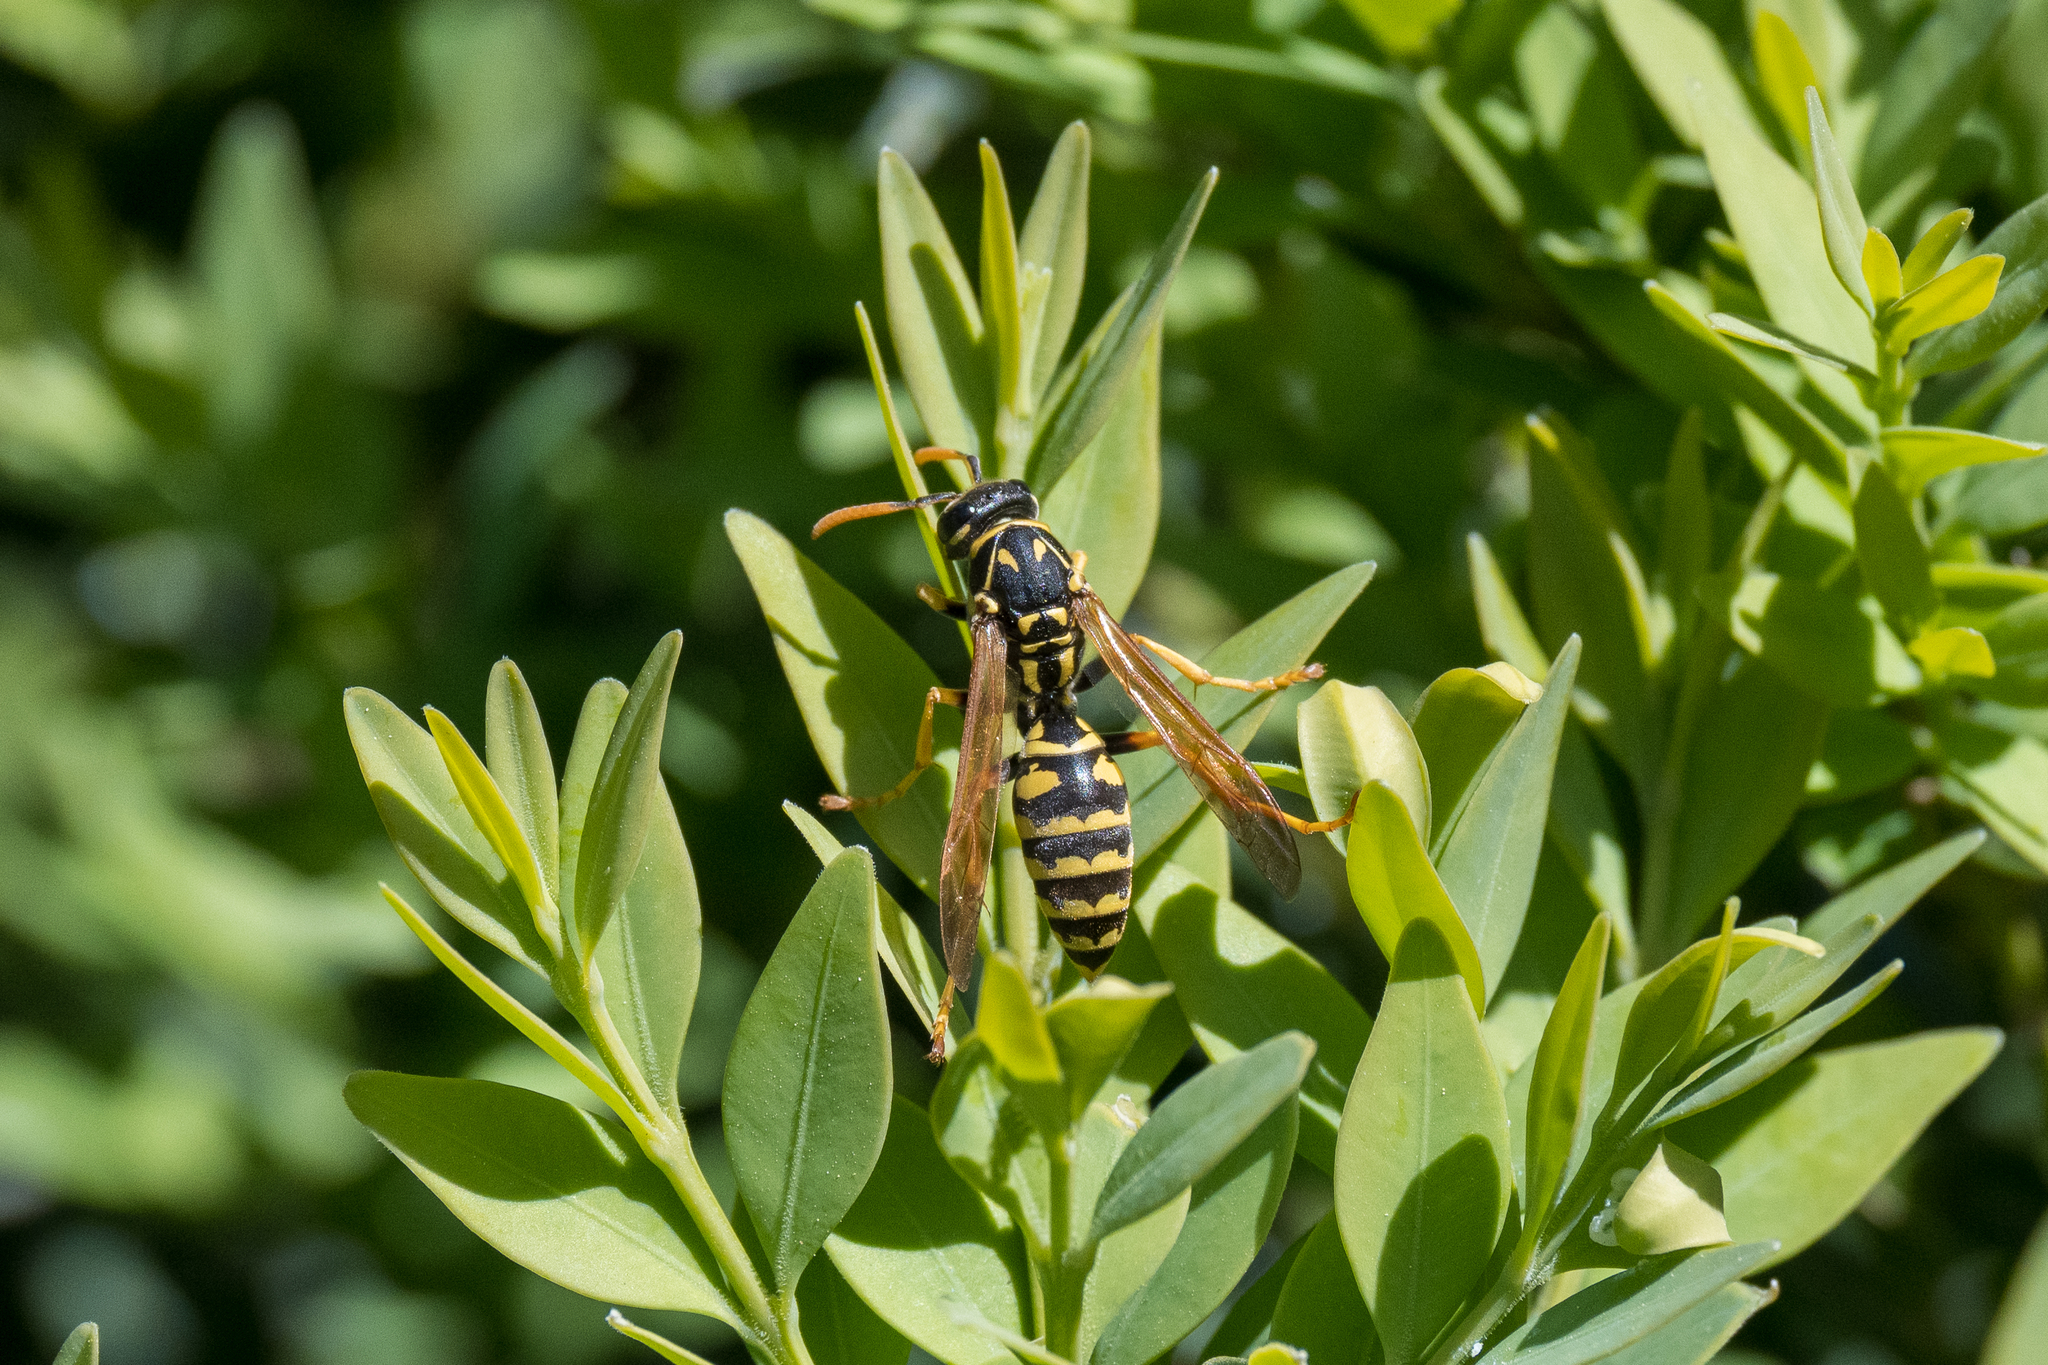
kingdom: Animalia
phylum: Arthropoda
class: Insecta
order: Hymenoptera
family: Eumenidae
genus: Polistes
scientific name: Polistes dominula
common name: Paper wasp
